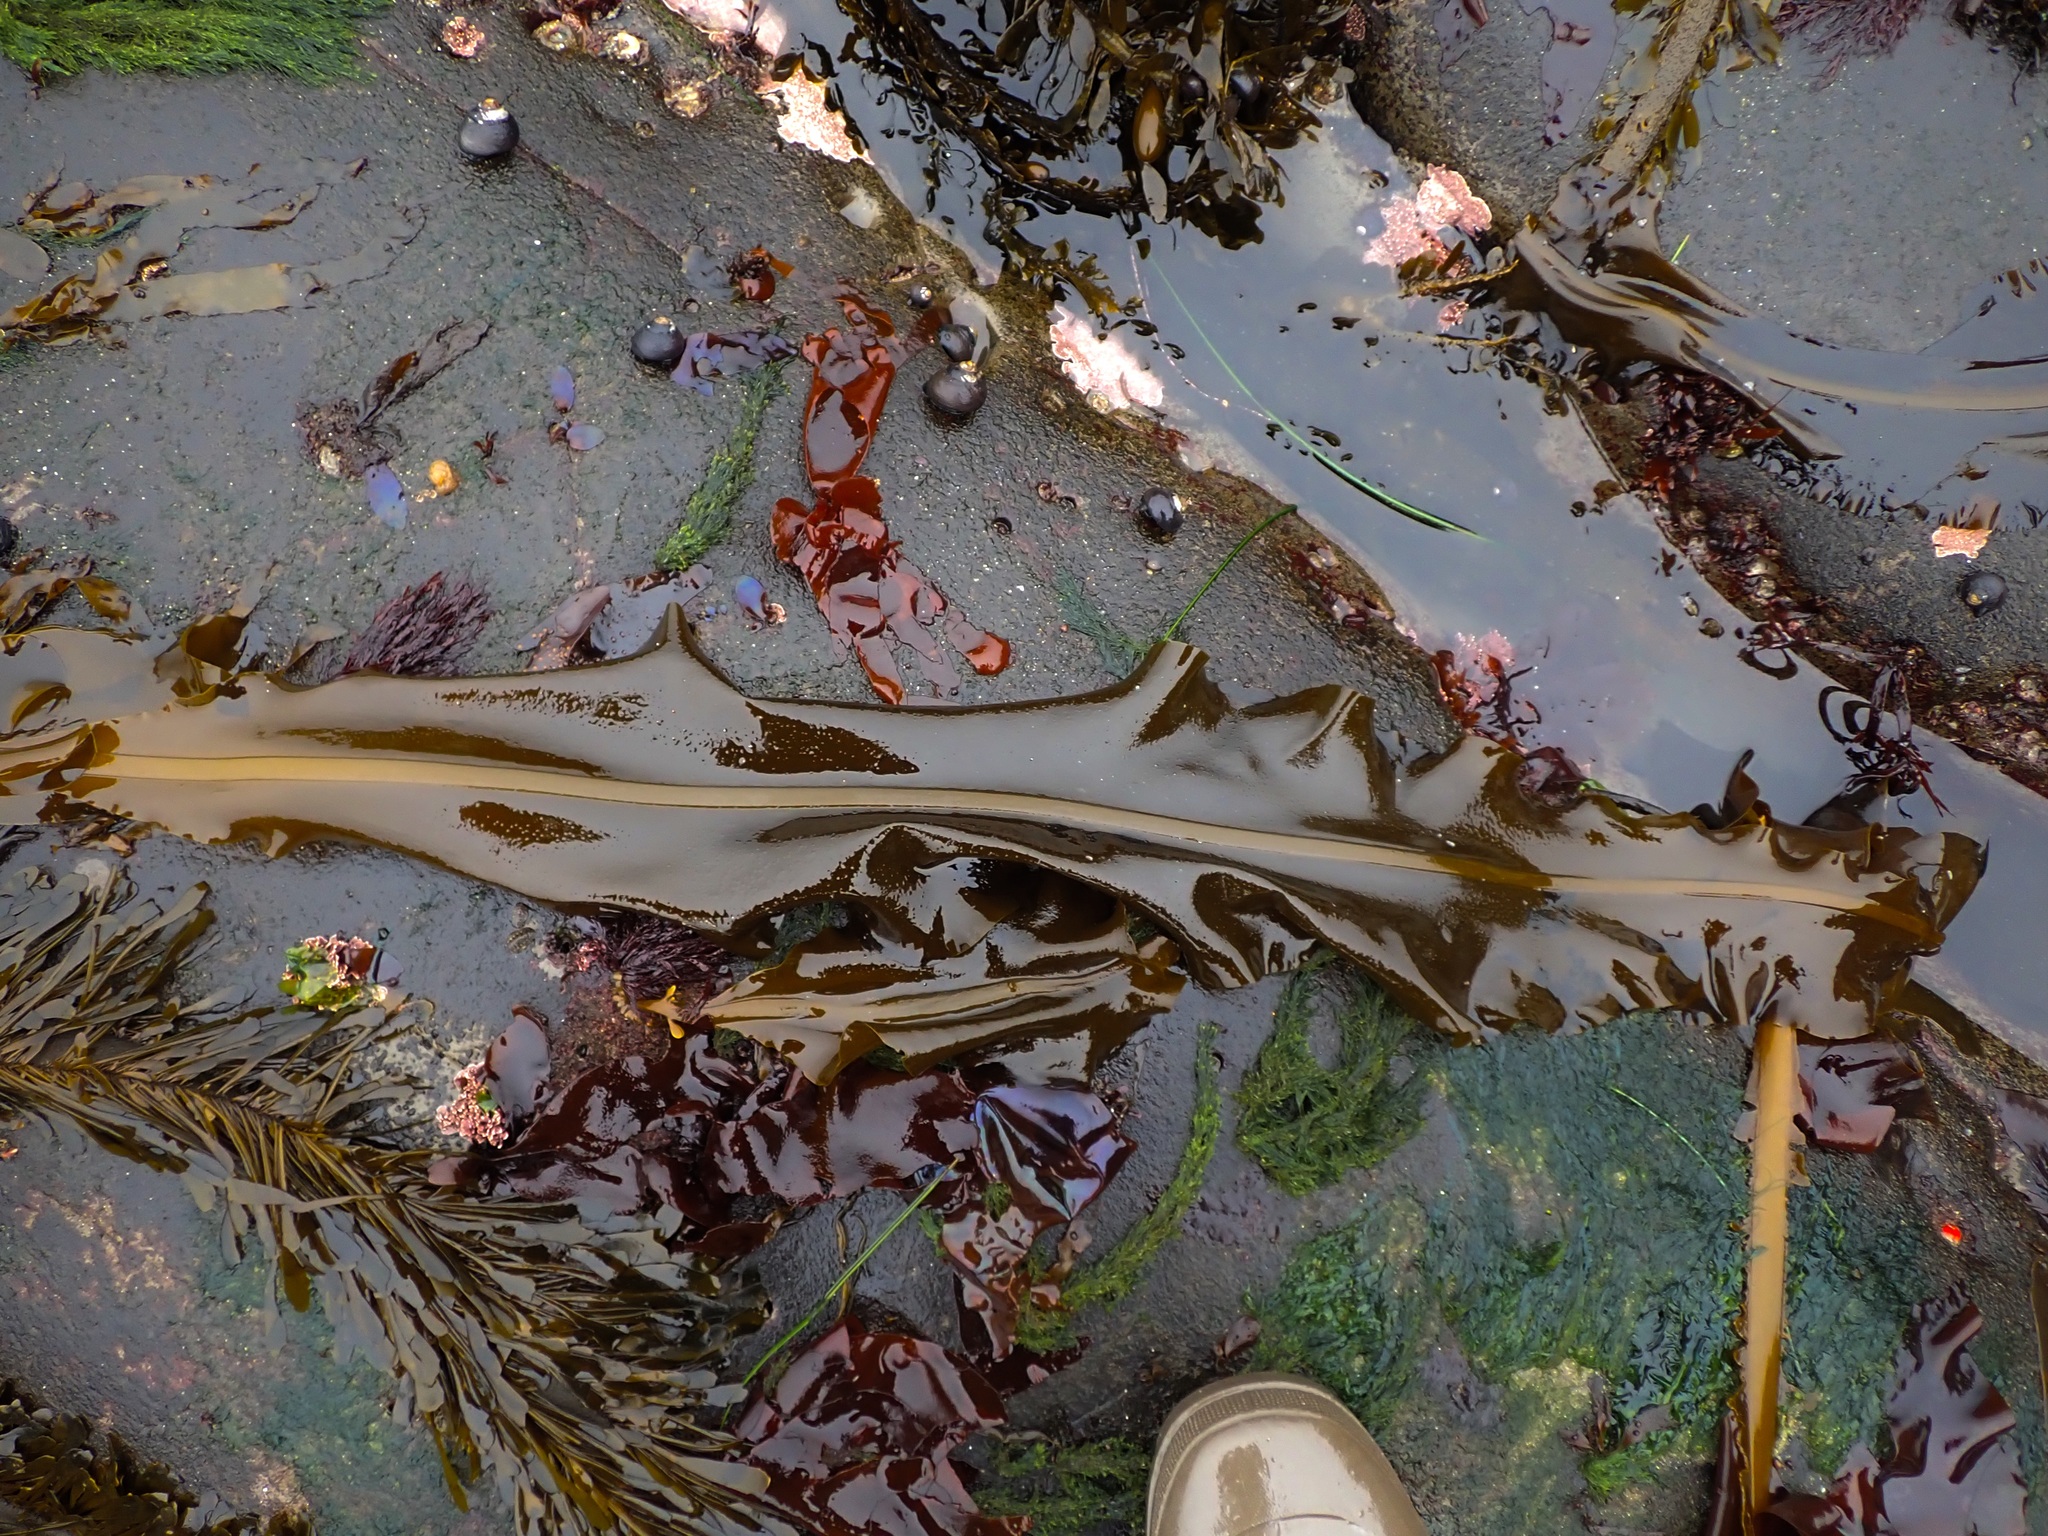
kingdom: Chromista
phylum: Ochrophyta
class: Phaeophyceae
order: Laminariales
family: Alariaceae
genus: Alaria
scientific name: Alaria marginata
